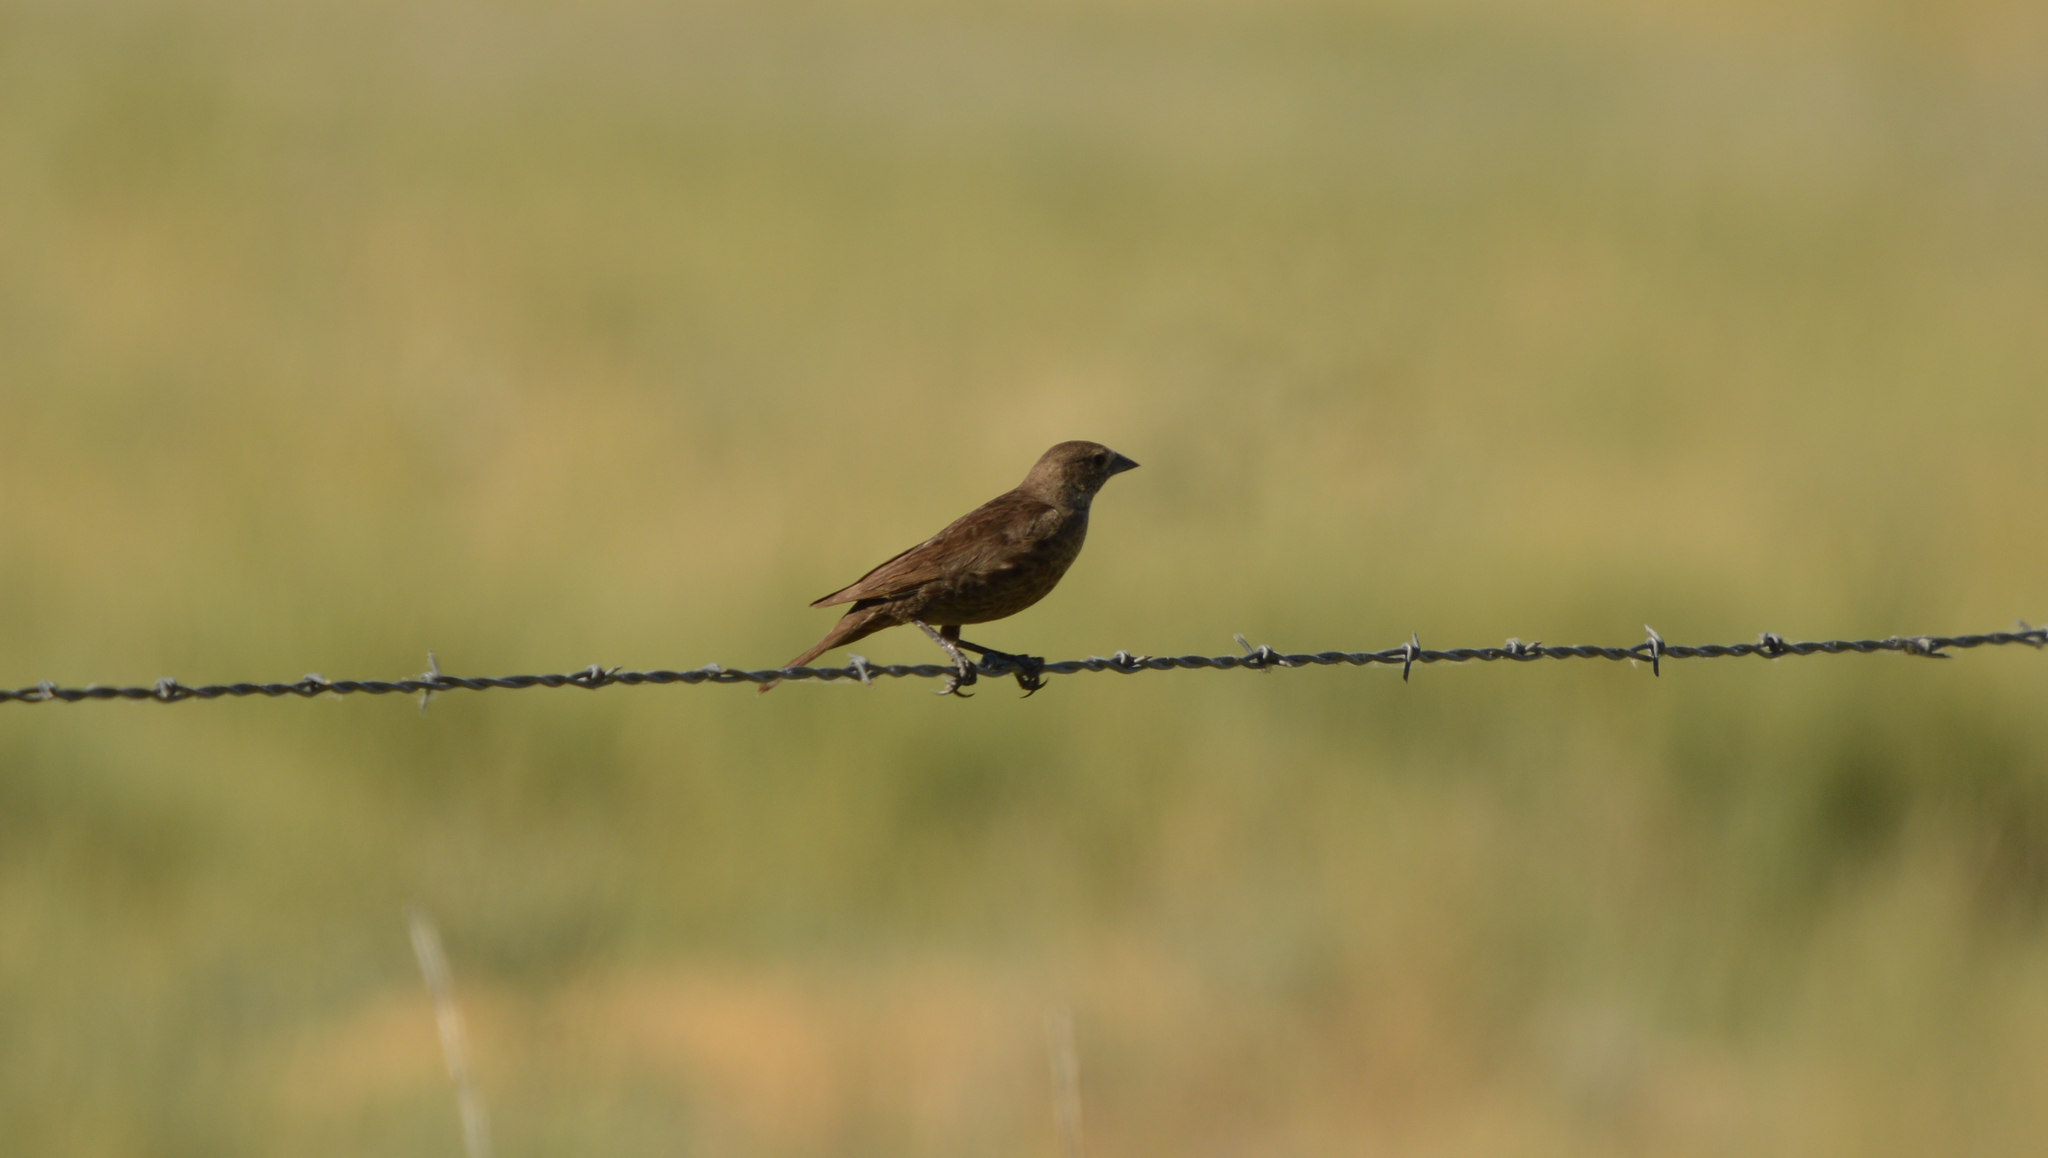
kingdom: Animalia
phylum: Chordata
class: Aves
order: Passeriformes
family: Icteridae
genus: Molothrus
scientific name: Molothrus ater
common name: Brown-headed cowbird
